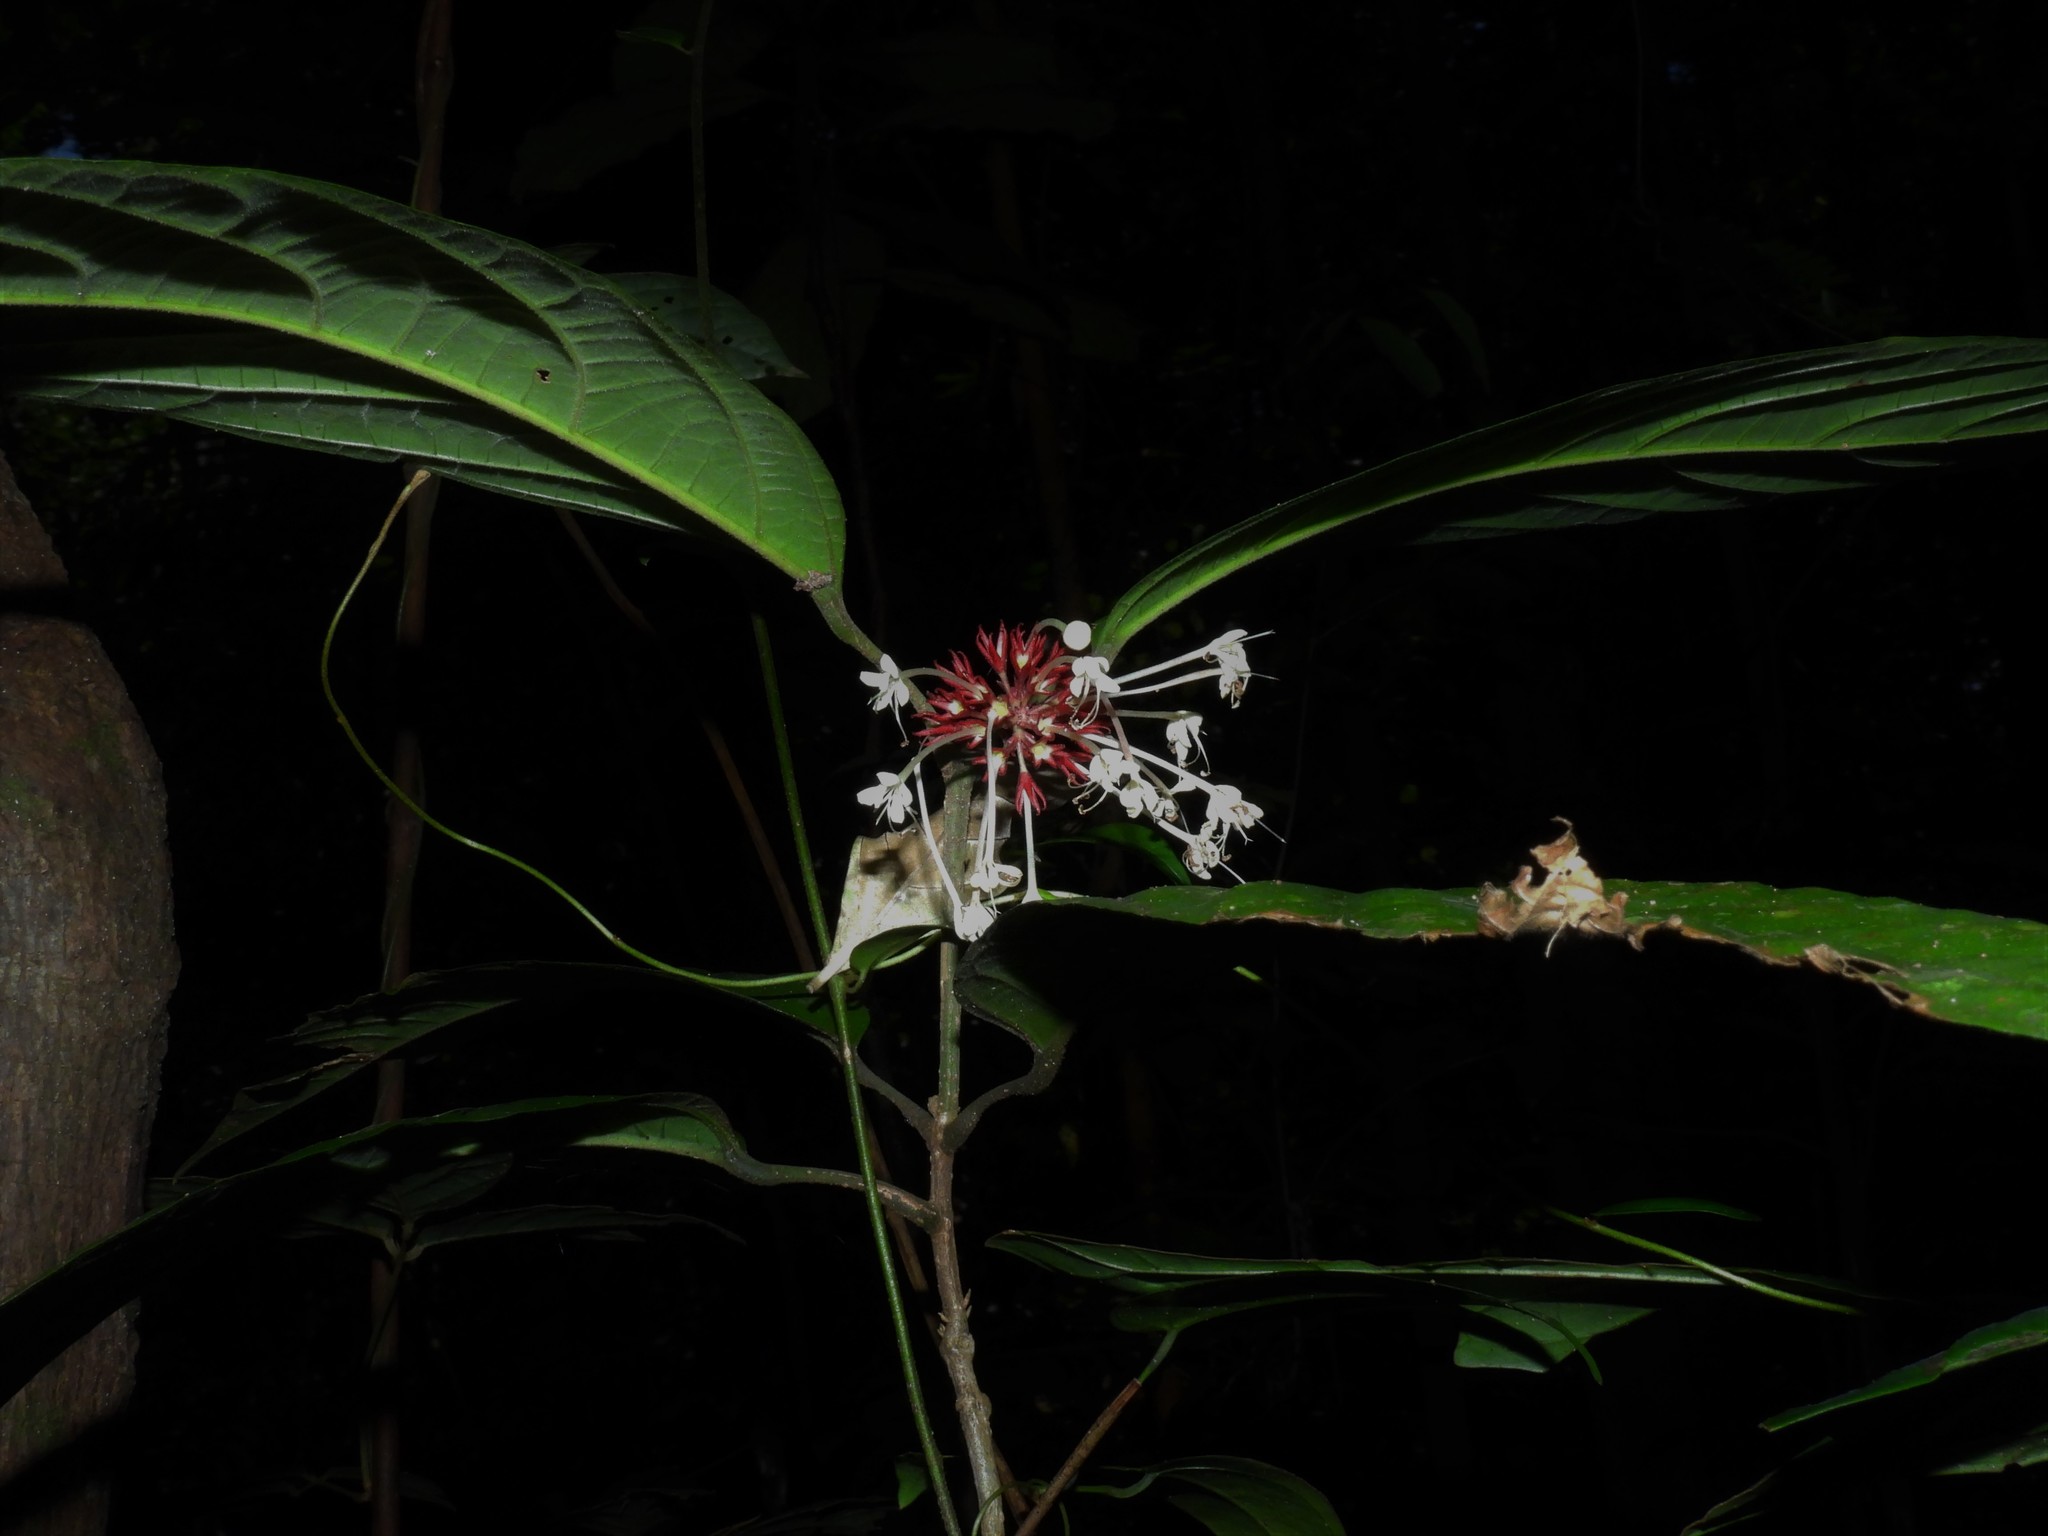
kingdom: Plantae
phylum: Tracheophyta
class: Magnoliopsida
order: Lamiales
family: Lamiaceae
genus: Clerodendrum
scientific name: Clerodendrum deflexum
